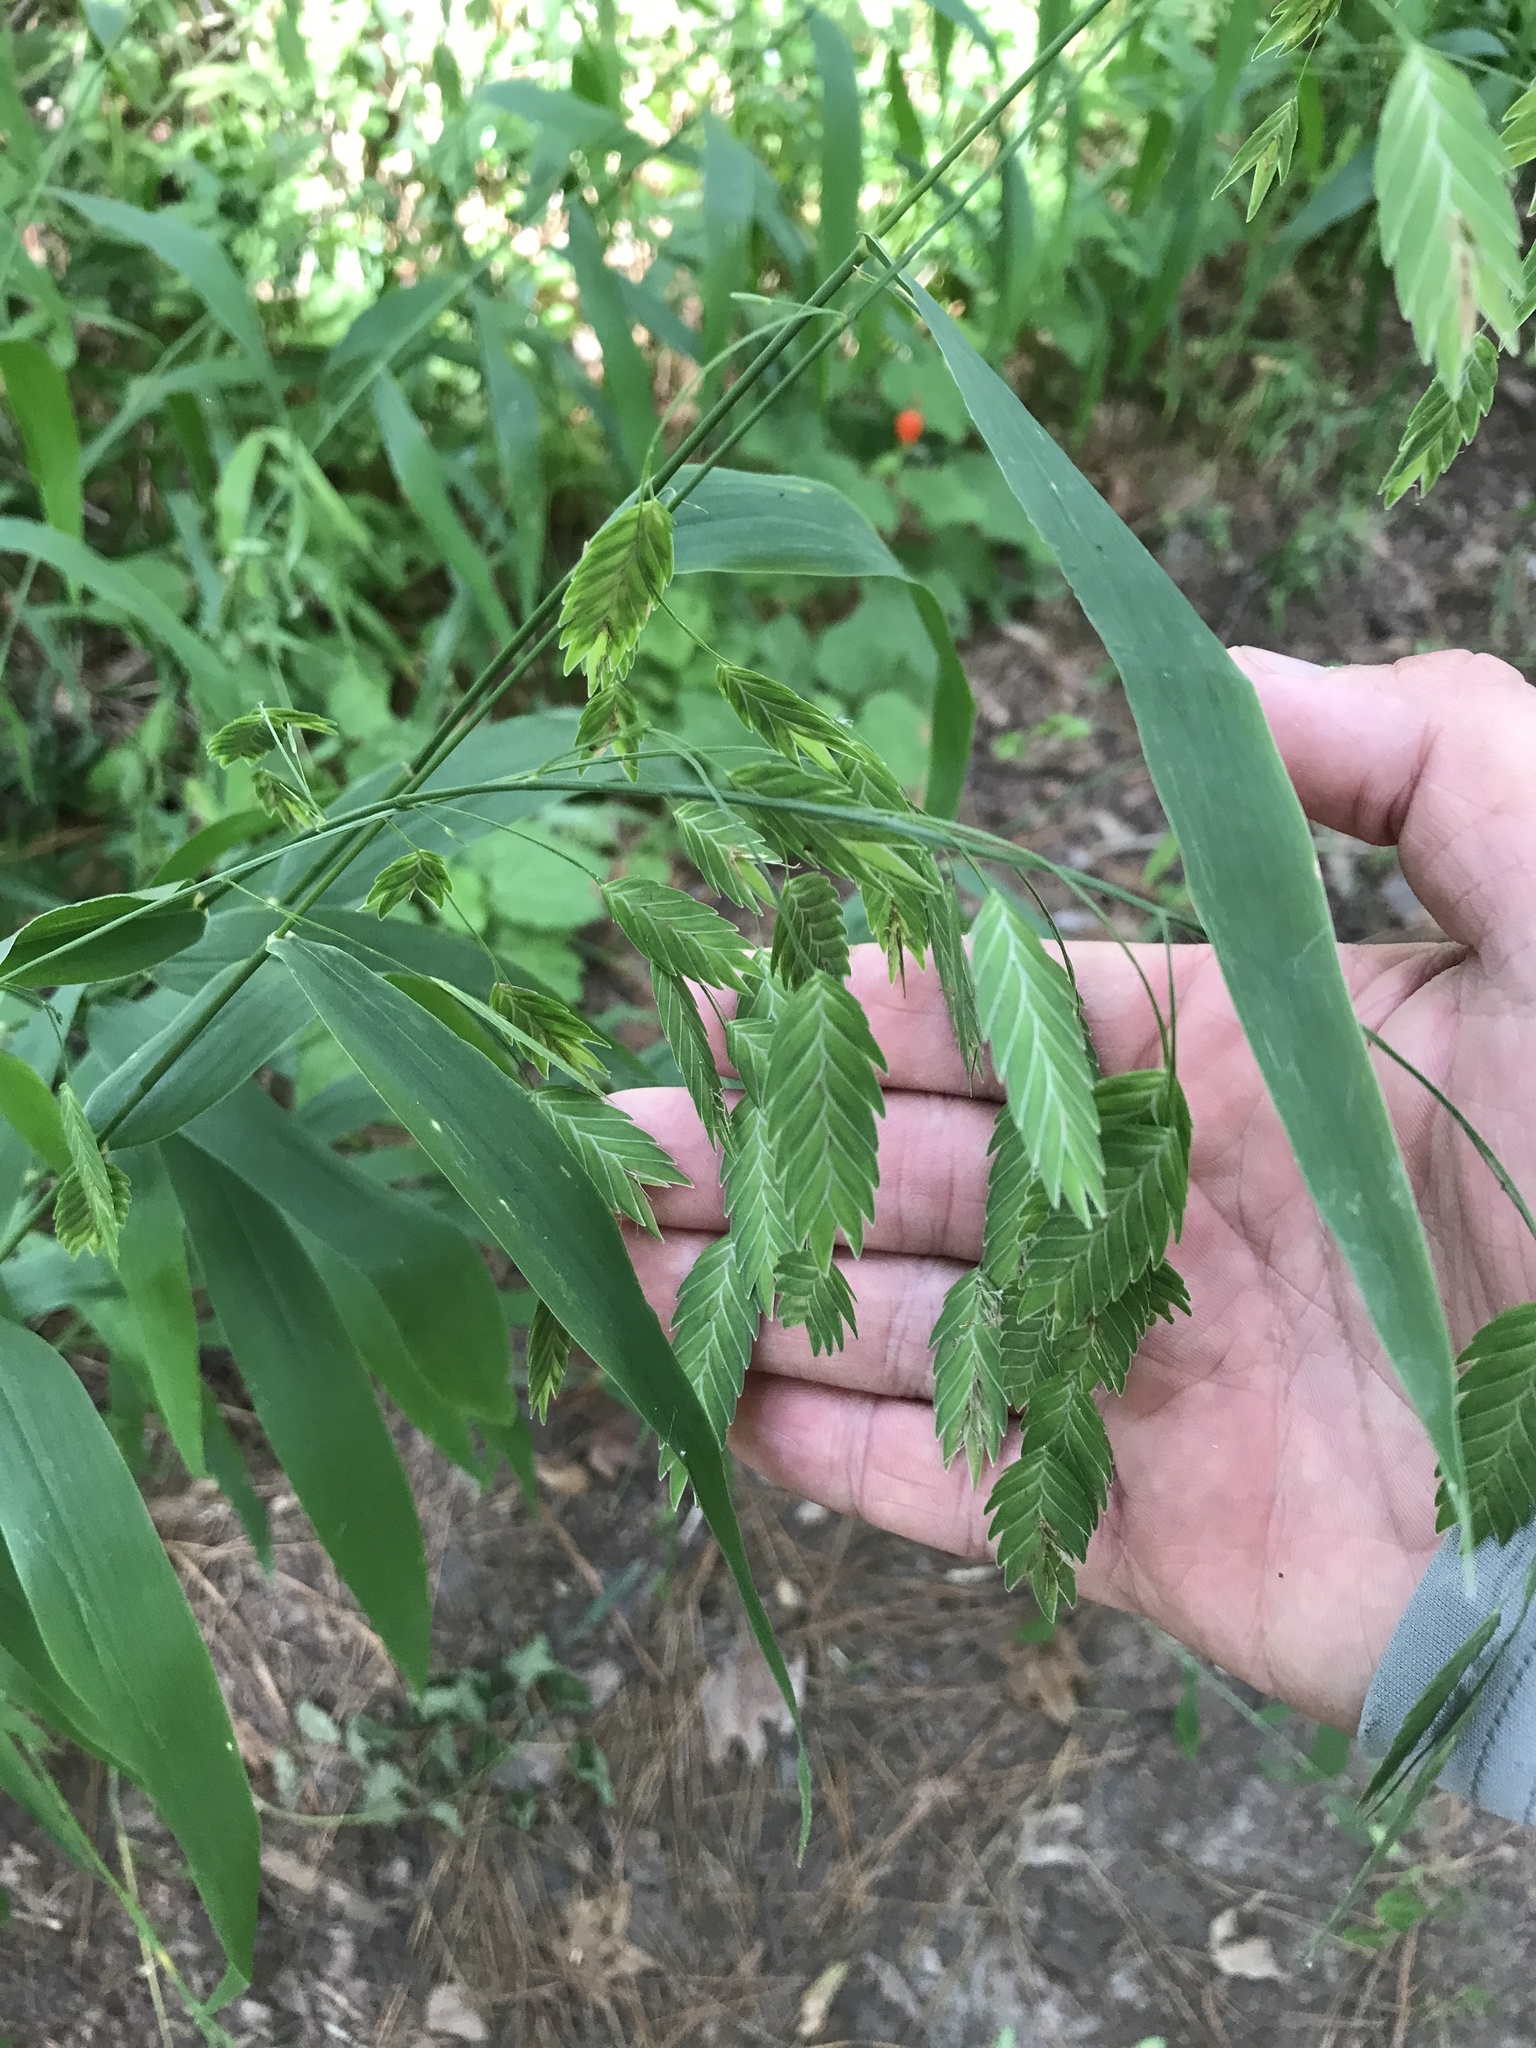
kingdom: Plantae
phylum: Tracheophyta
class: Liliopsida
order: Poales
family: Poaceae
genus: Chasmanthium
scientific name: Chasmanthium latifolium
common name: Broad-leaved chasmanthium
